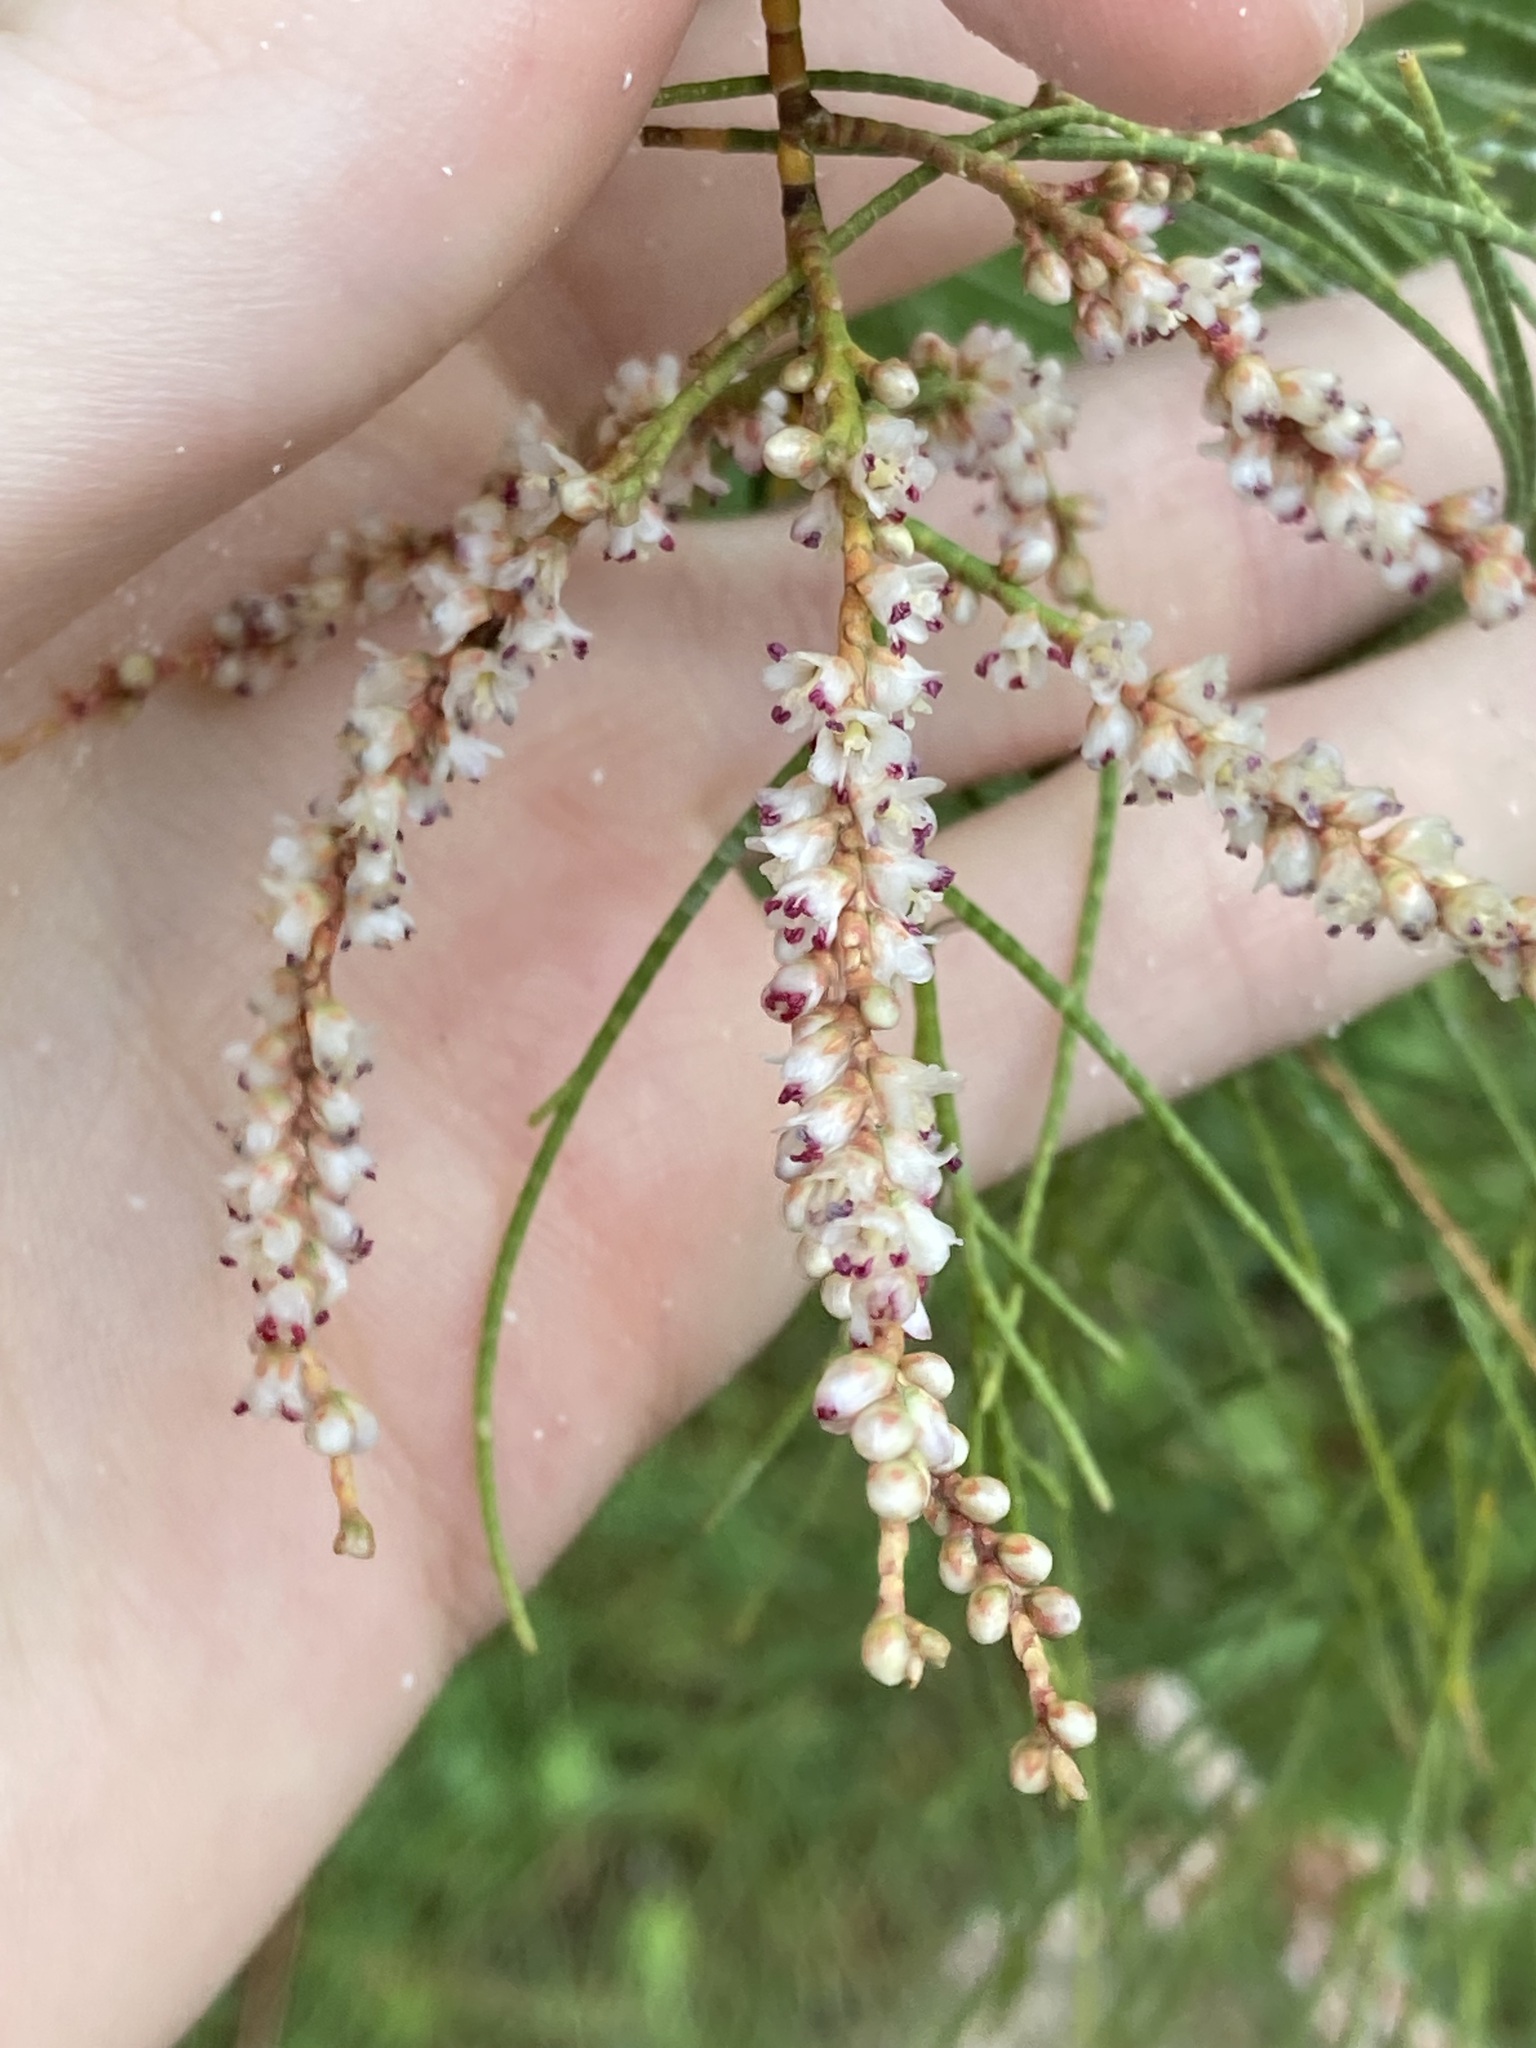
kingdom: Plantae
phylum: Tracheophyta
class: Magnoliopsida
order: Caryophyllales
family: Tamaricaceae
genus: Tamarix
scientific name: Tamarix aphylla
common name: Athel tamarisk
